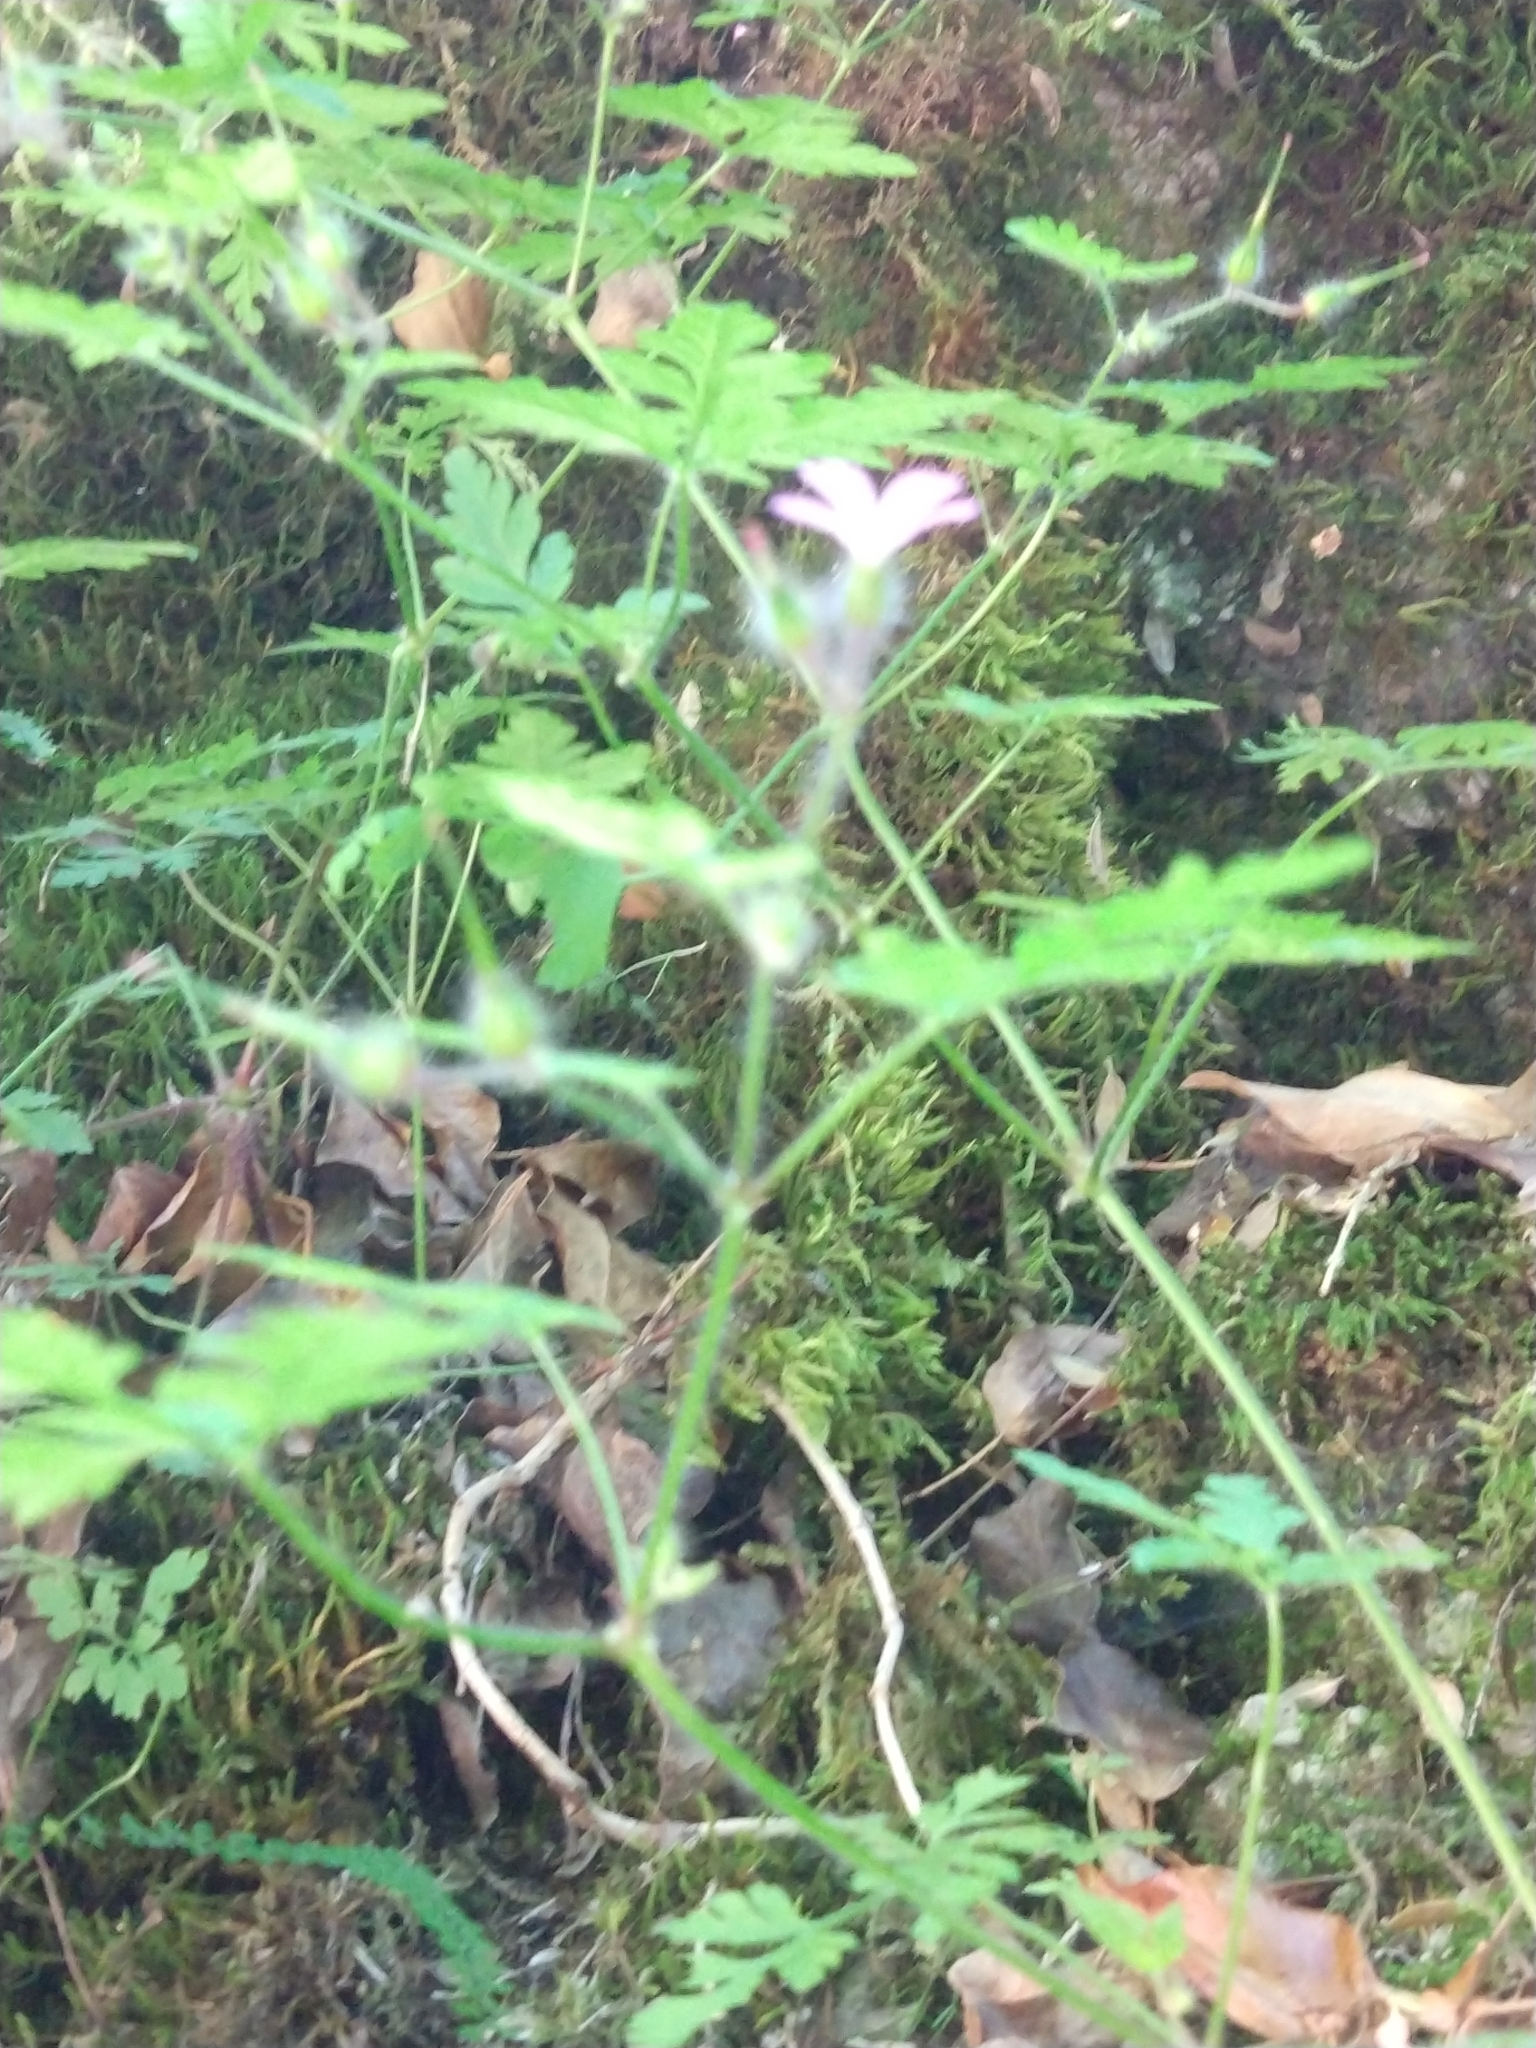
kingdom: Plantae
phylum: Tracheophyta
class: Magnoliopsida
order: Geraniales
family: Geraniaceae
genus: Geranium
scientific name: Geranium robertianum
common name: Herb-robert
